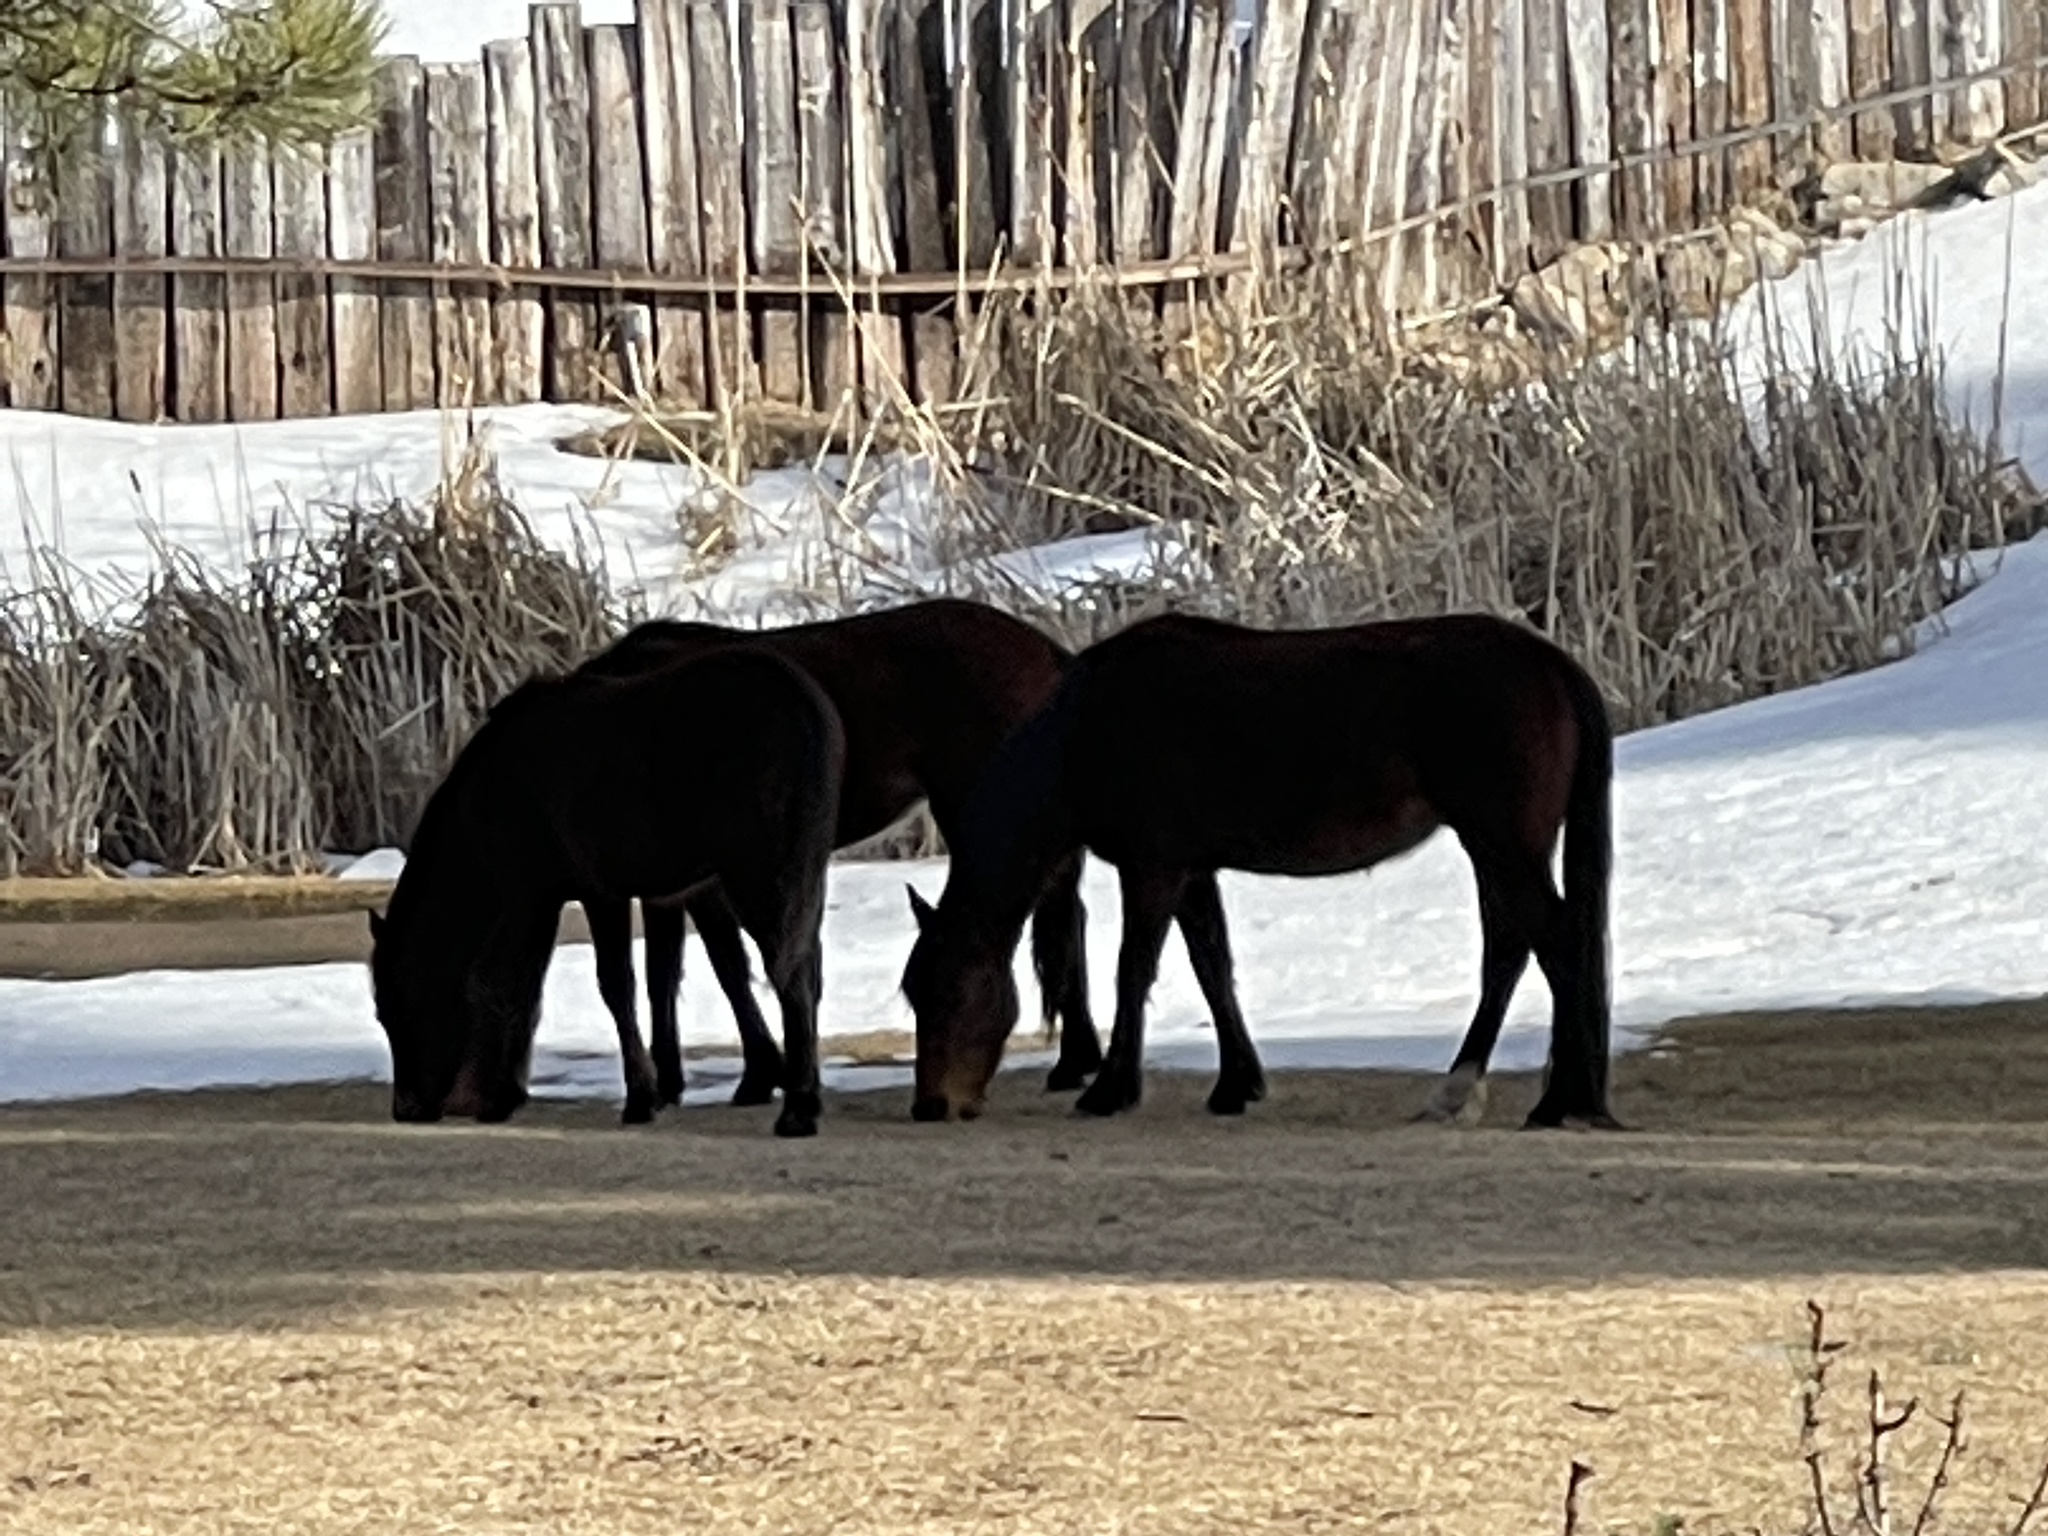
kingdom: Animalia
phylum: Chordata
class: Mammalia
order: Perissodactyla
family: Equidae
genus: Equus
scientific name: Equus caballus
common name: Horse
